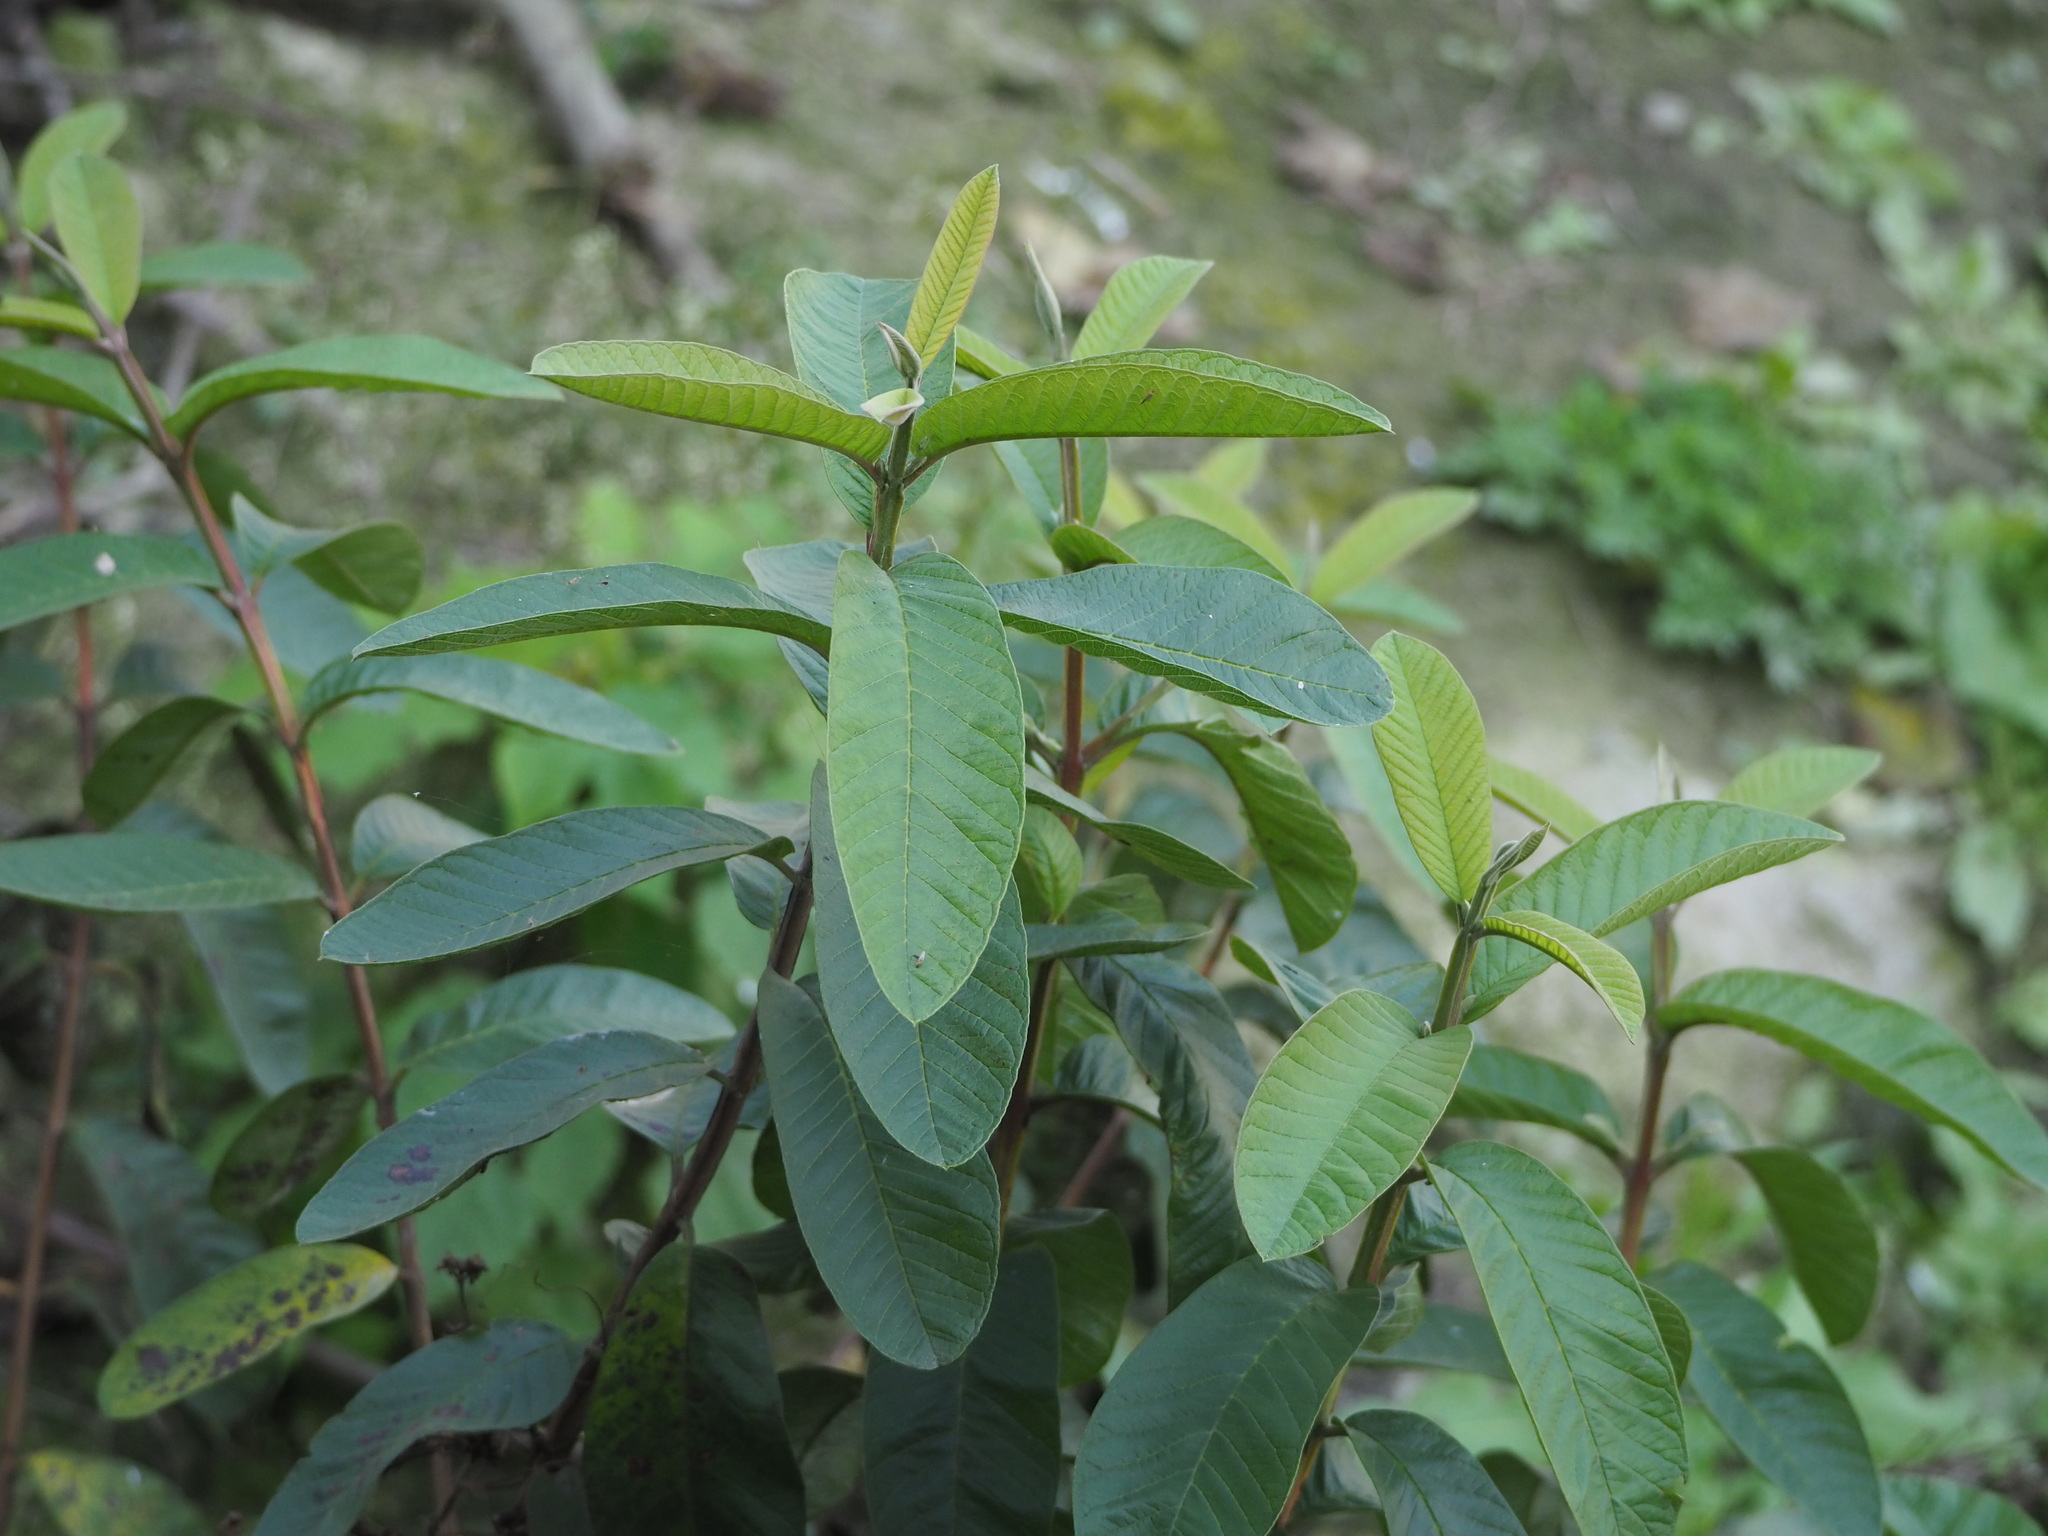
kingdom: Plantae
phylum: Tracheophyta
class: Magnoliopsida
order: Myrtales
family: Myrtaceae
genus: Psidium
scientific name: Psidium guajava
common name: Guava
